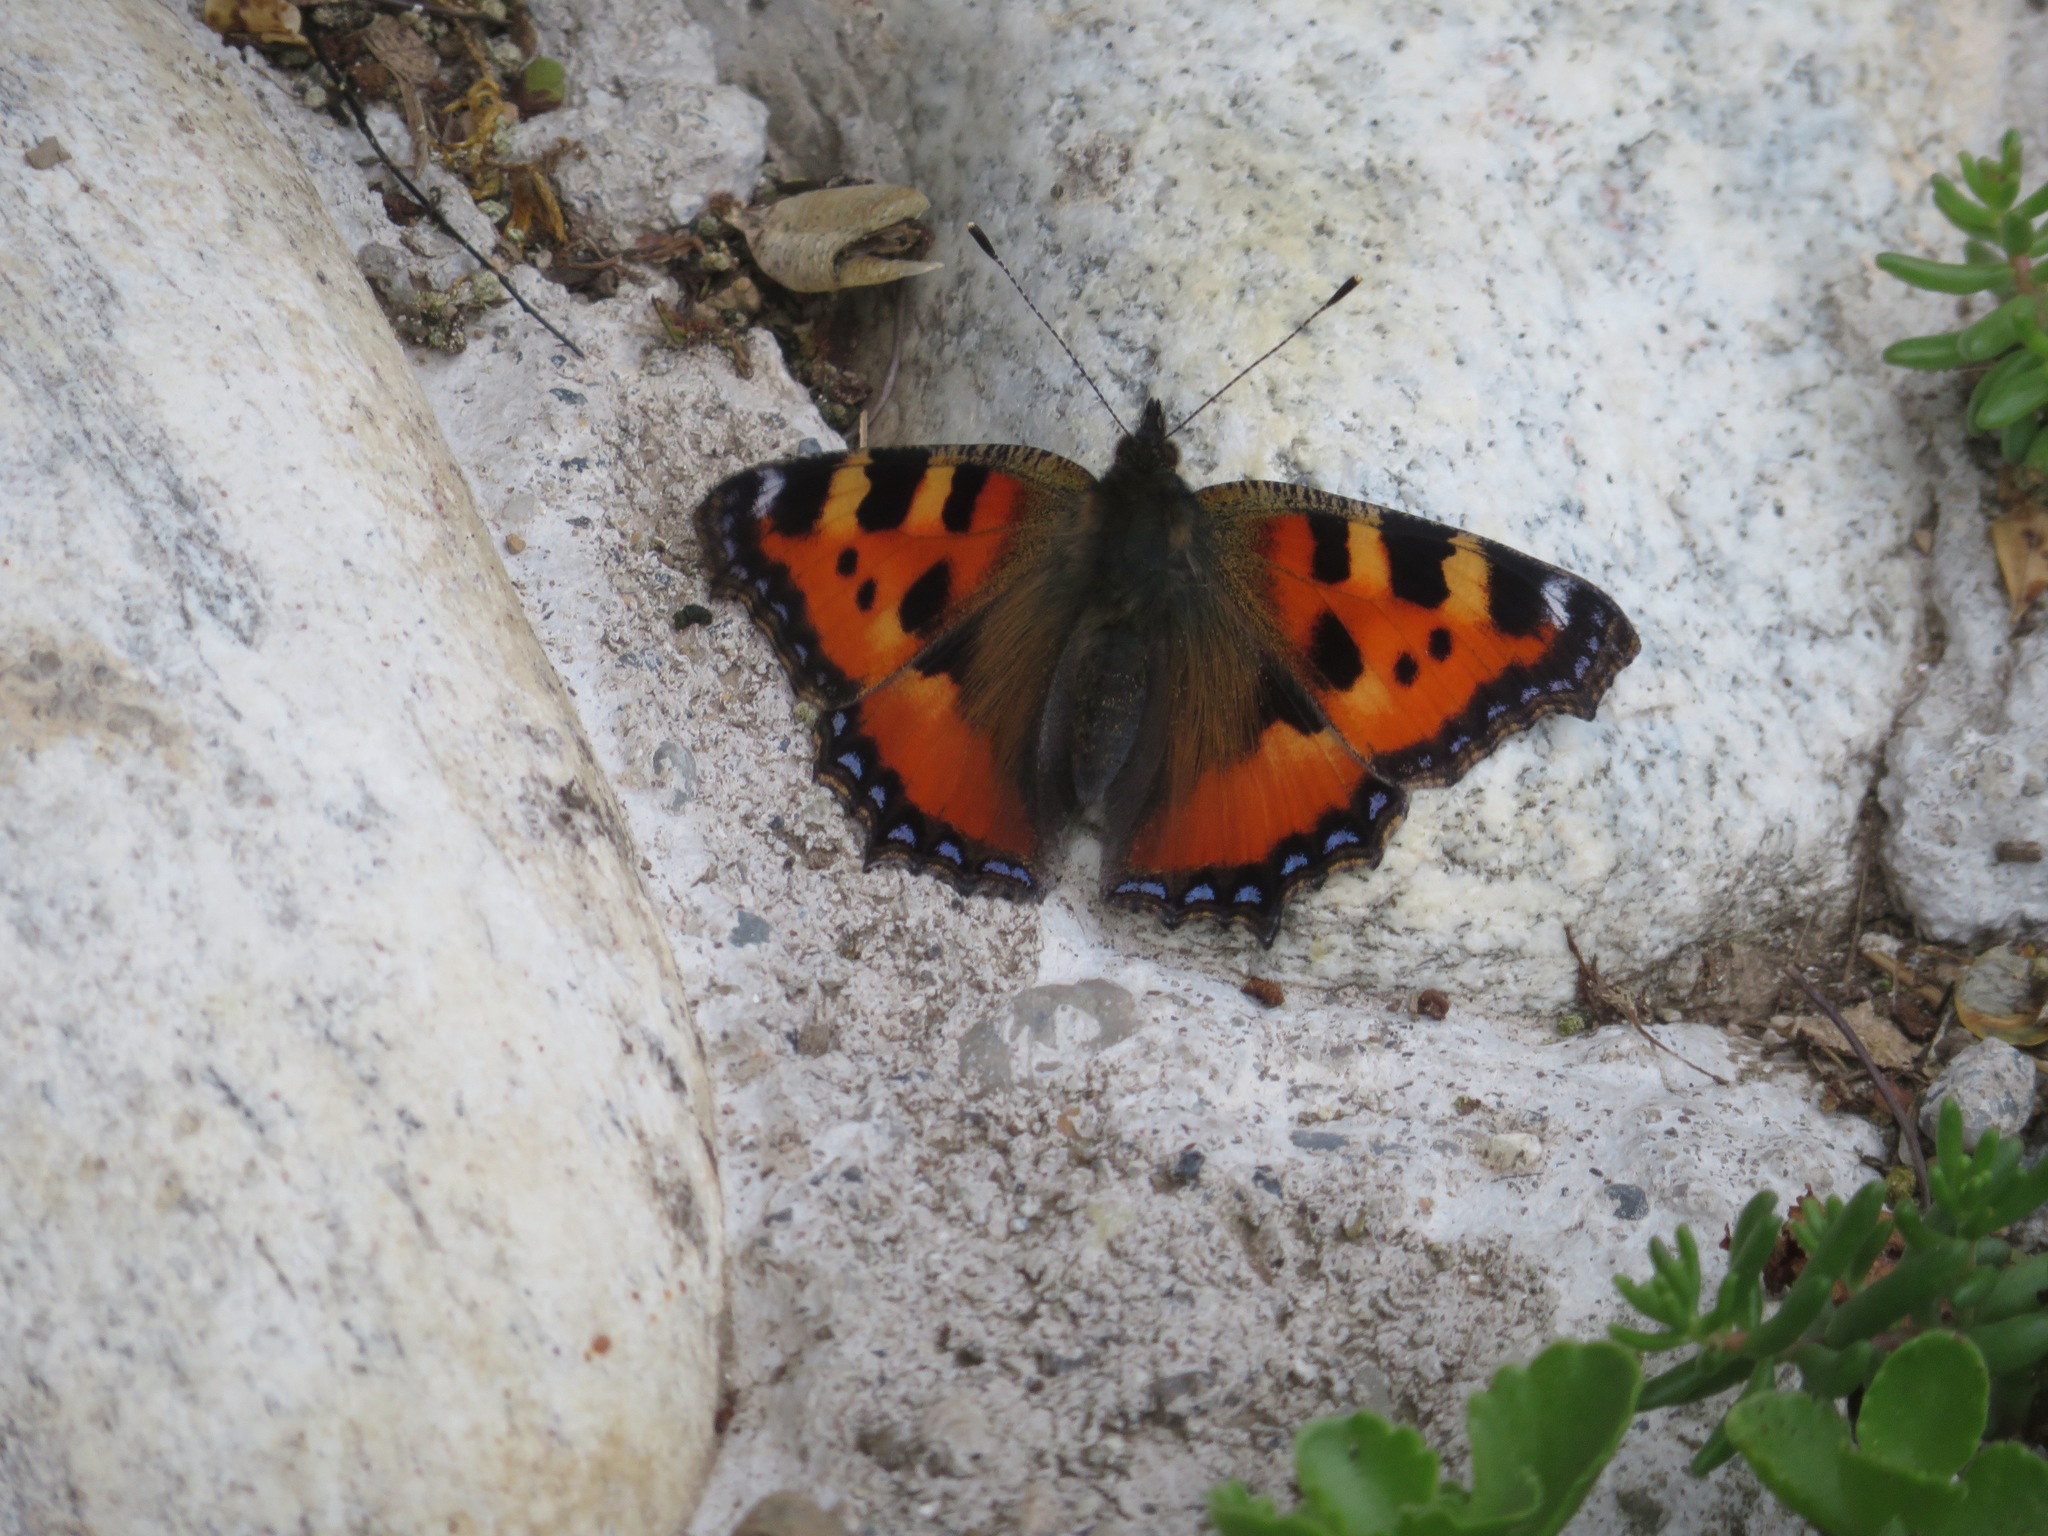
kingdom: Animalia
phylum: Arthropoda
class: Insecta
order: Lepidoptera
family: Nymphalidae
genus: Aglais
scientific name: Aglais urticae
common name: Small tortoiseshell
